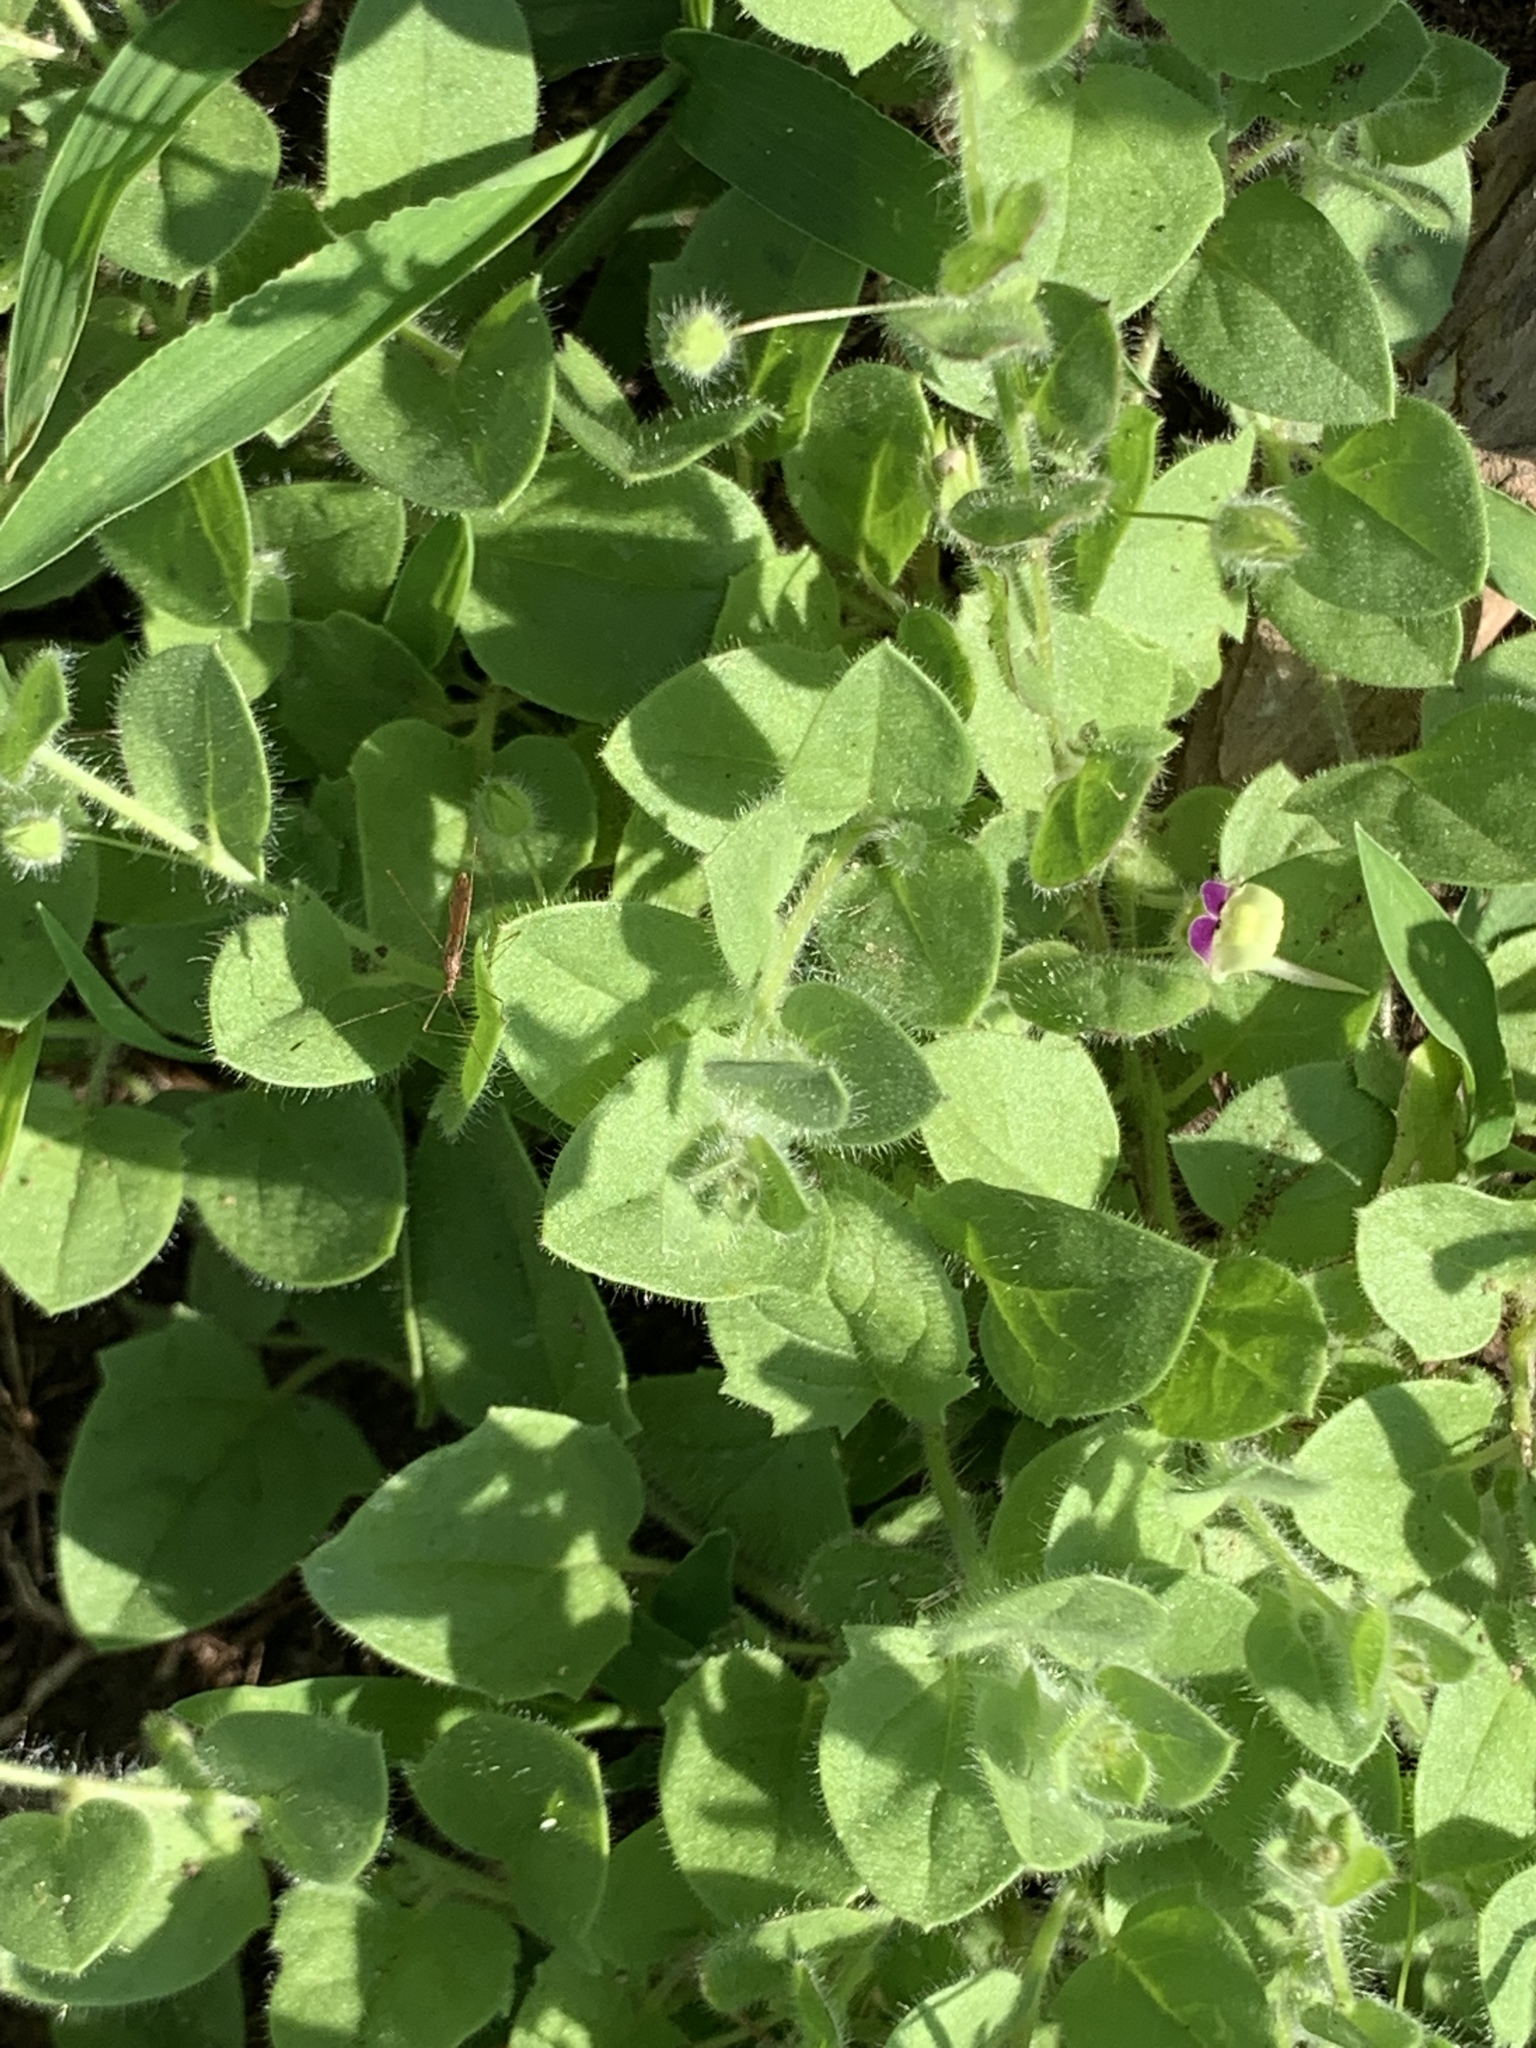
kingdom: Plantae
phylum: Tracheophyta
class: Magnoliopsida
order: Lamiales
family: Plantaginaceae
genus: Kickxia
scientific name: Kickxia elatine
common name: Sharp-leaved fluellen
